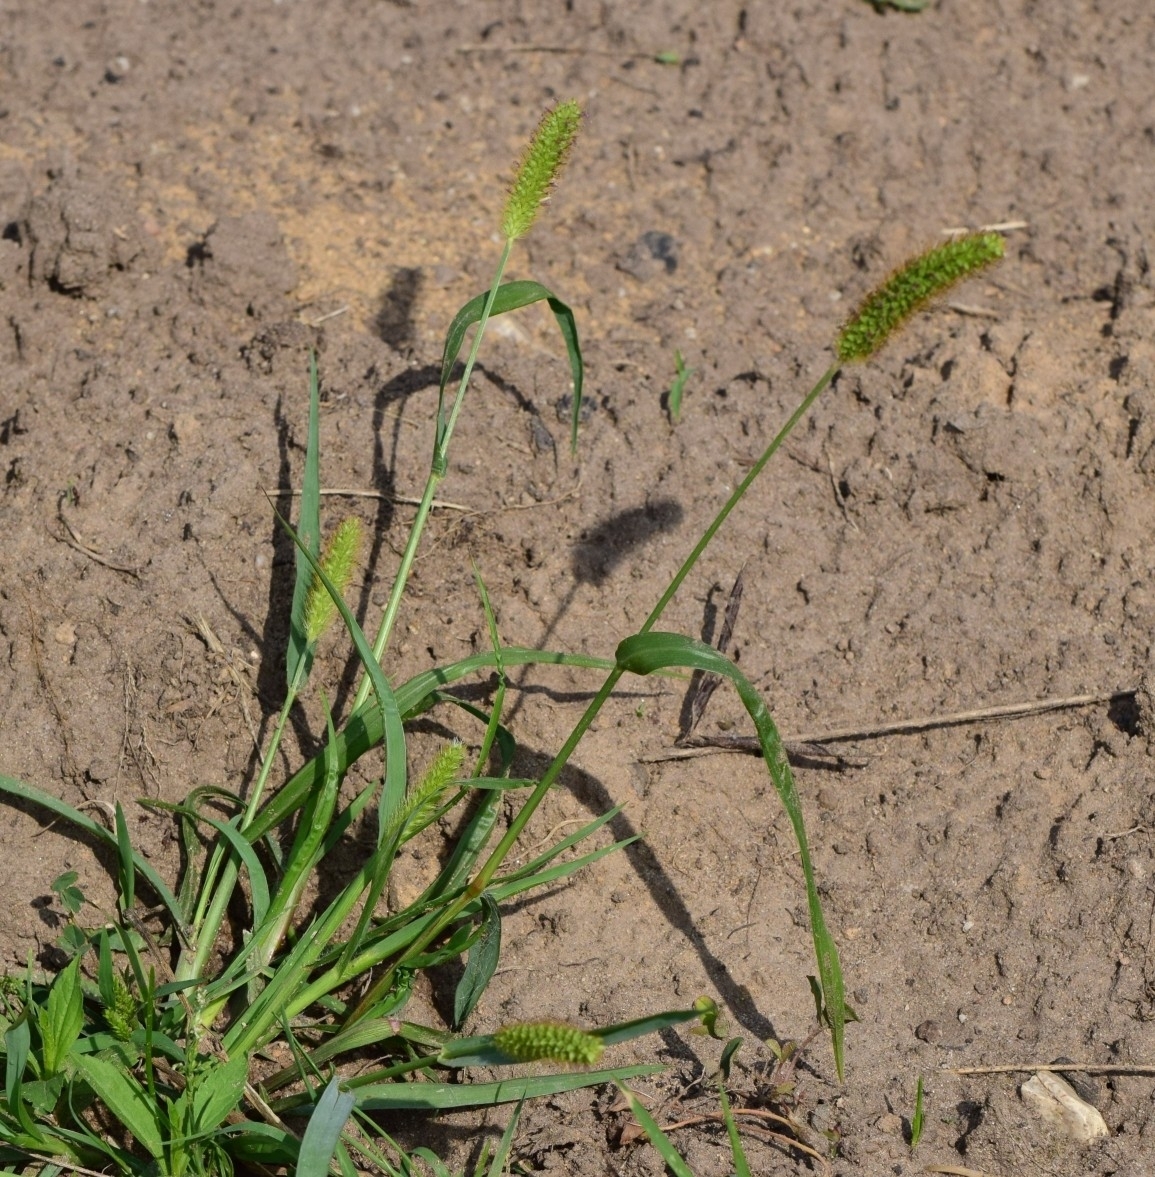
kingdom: Plantae
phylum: Tracheophyta
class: Liliopsida
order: Poales
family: Poaceae
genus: Setaria
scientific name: Setaria pumila
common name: Yellow bristle-grass
